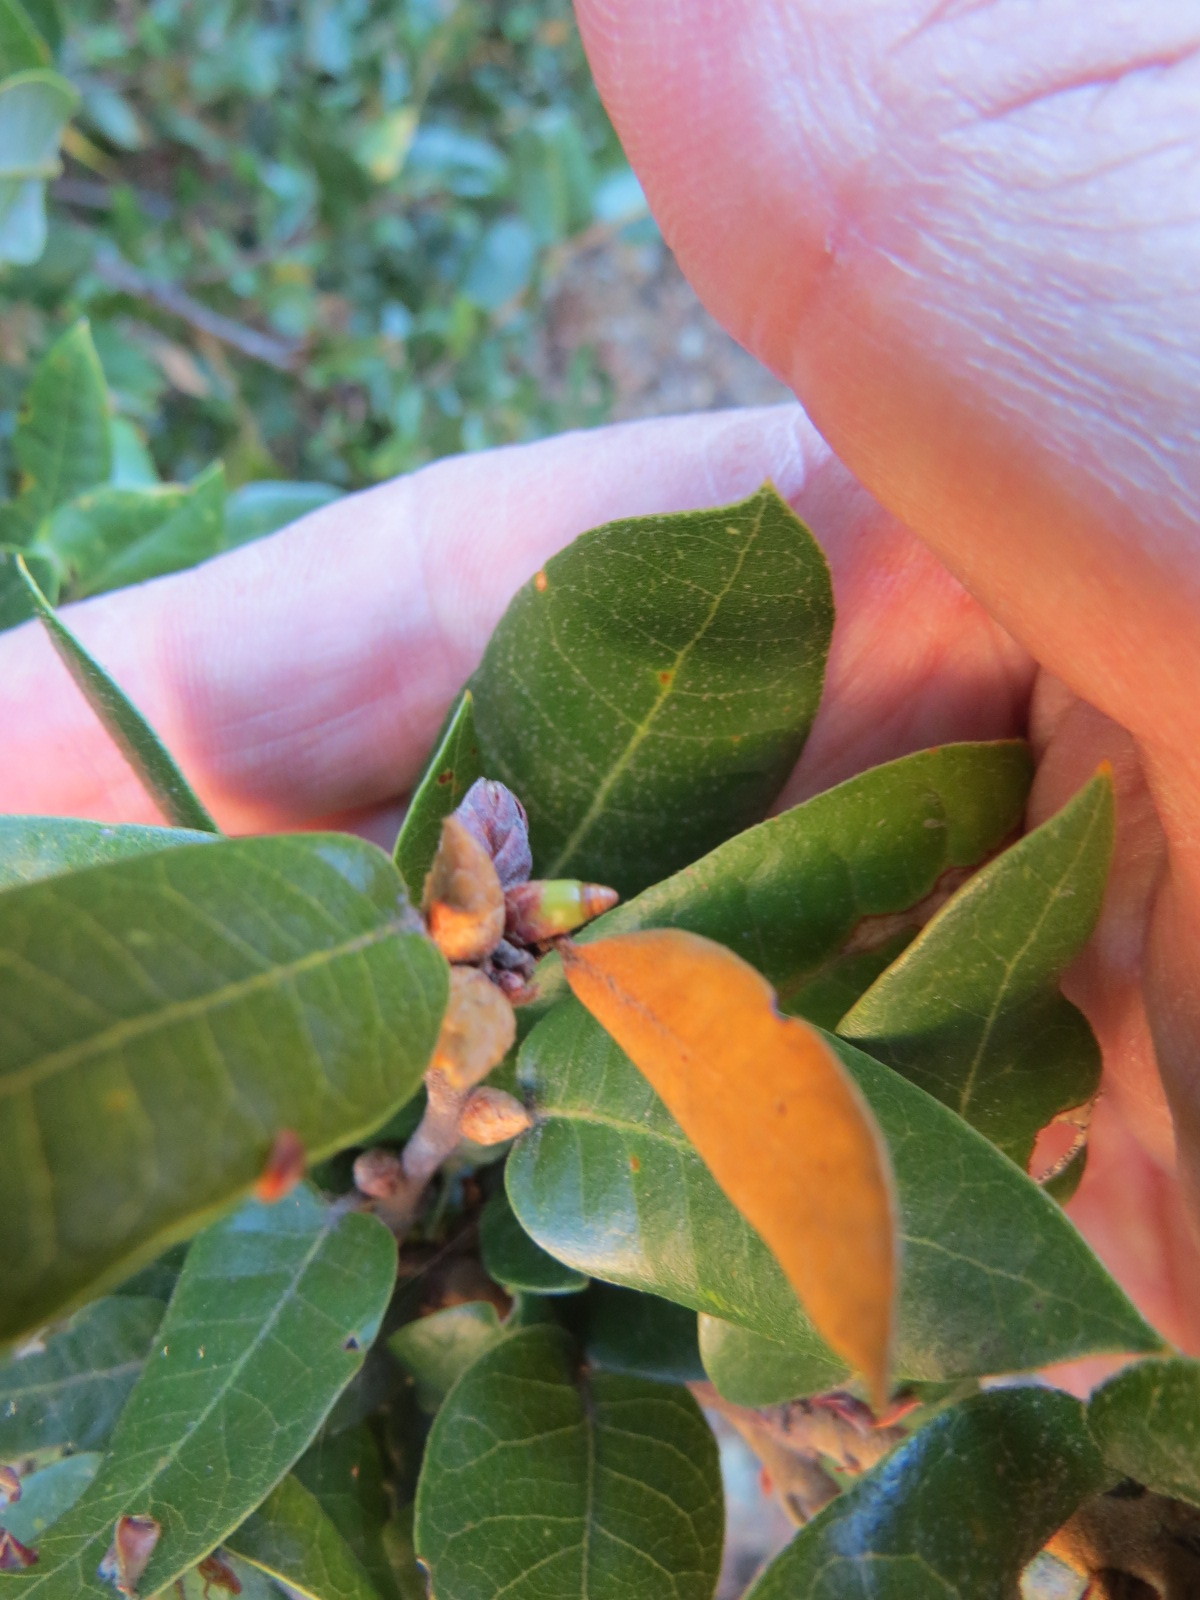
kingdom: Animalia
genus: Grahamstoneia
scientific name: Grahamstoneia humboldti
